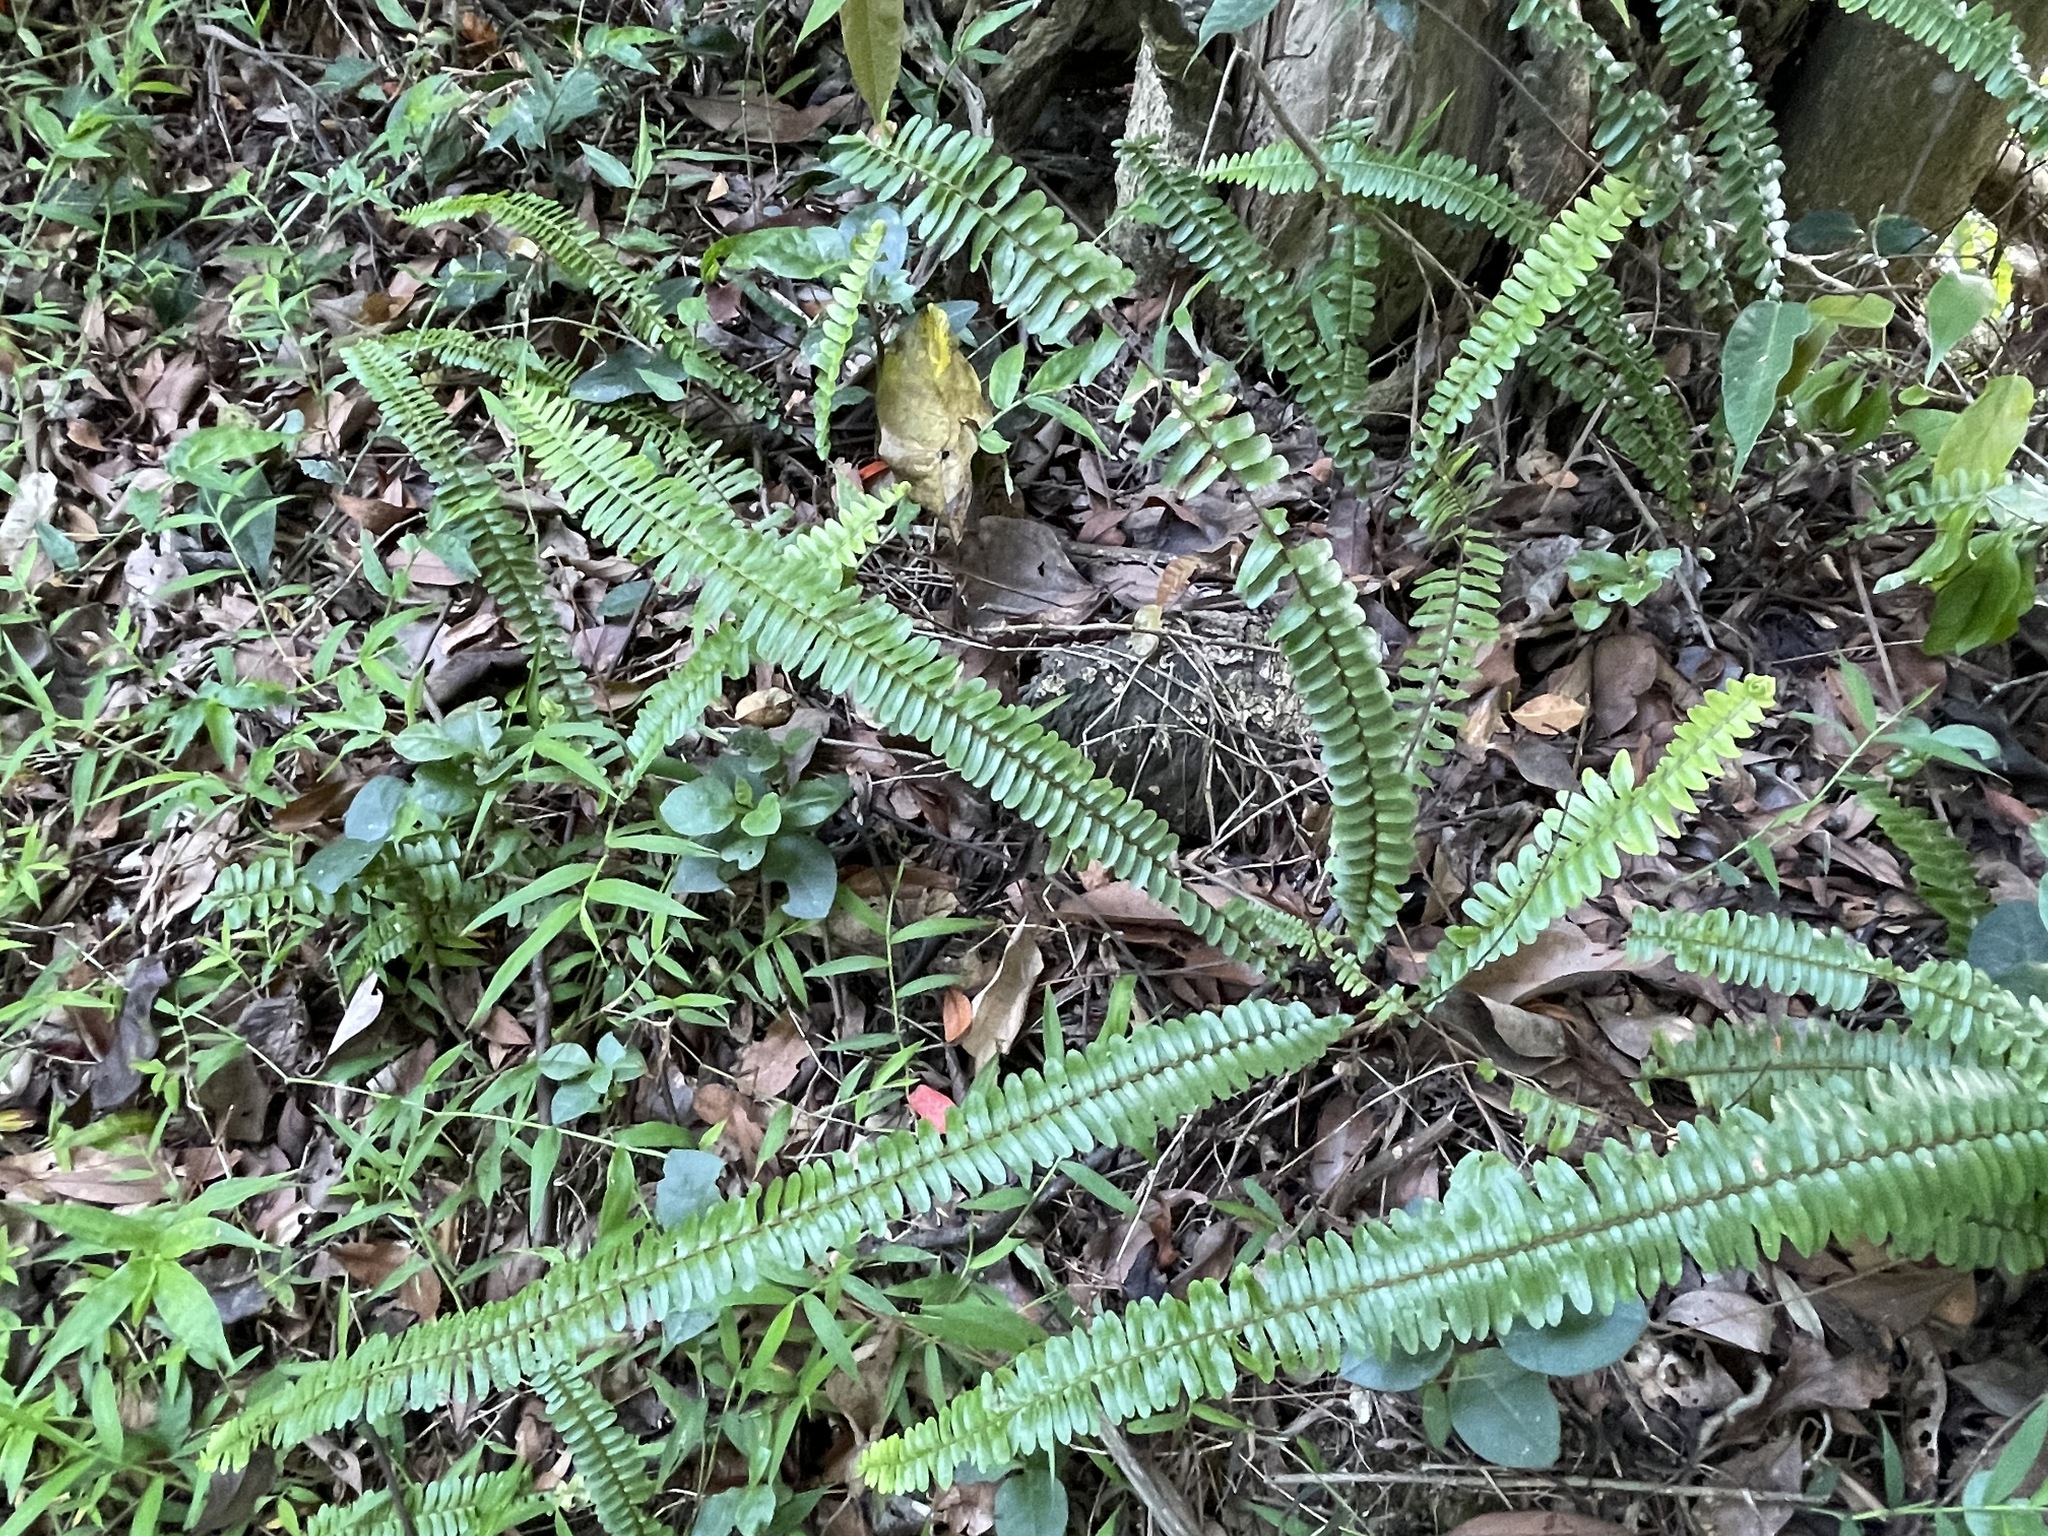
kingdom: Plantae
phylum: Tracheophyta
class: Polypodiopsida
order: Polypodiales
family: Nephrolepidaceae
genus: Nephrolepis
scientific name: Nephrolepis cordifolia
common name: Narrow swordfern
